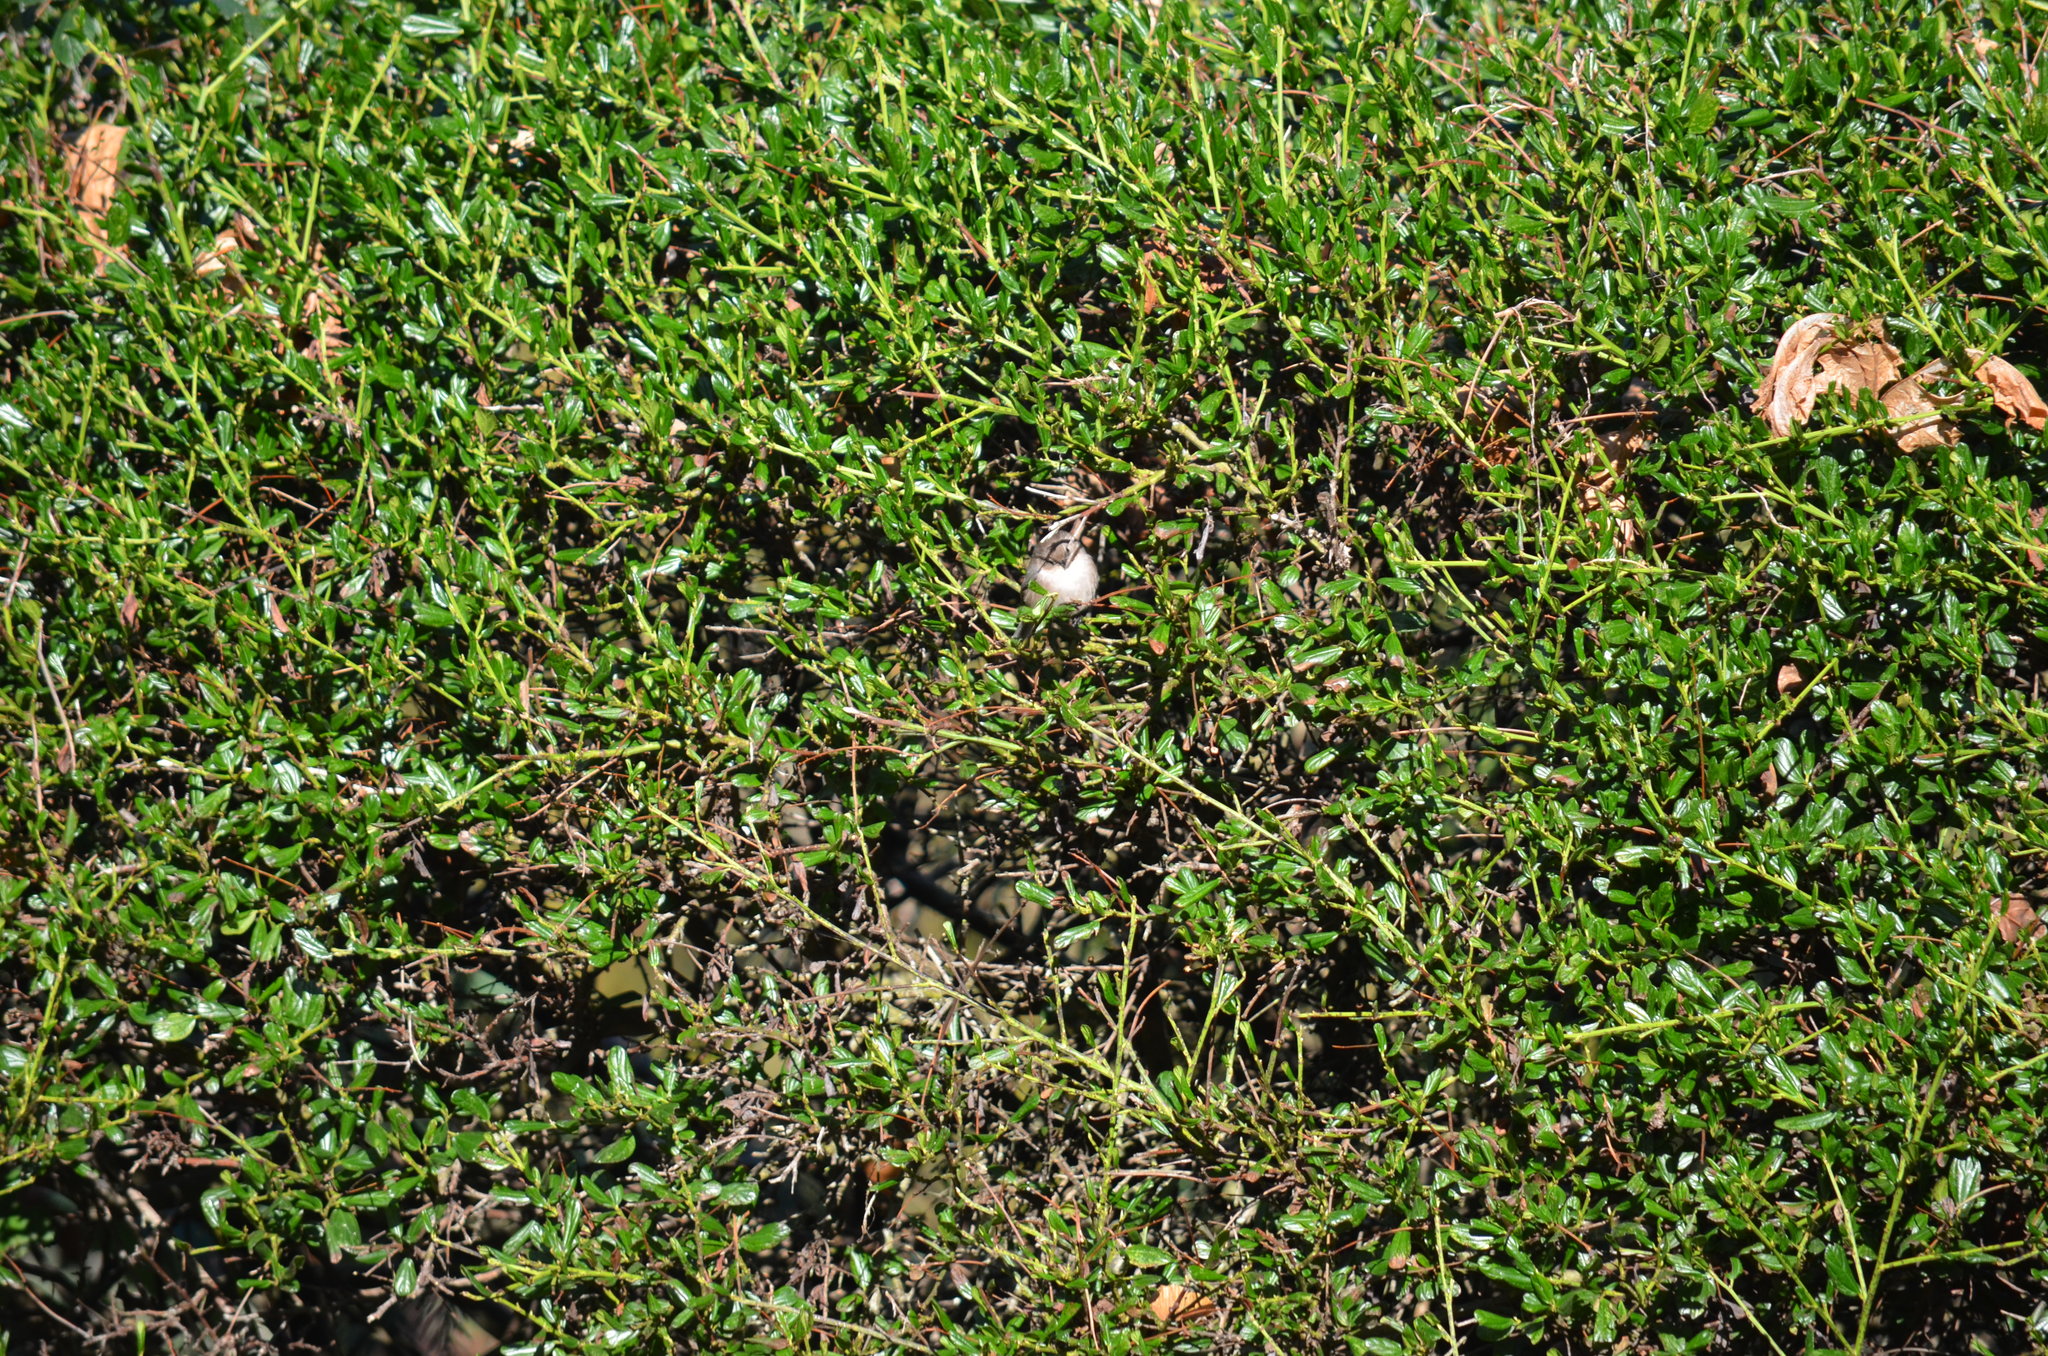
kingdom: Animalia
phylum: Chordata
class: Aves
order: Passeriformes
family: Aegithalidae
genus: Psaltriparus
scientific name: Psaltriparus minimus
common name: American bushtit
